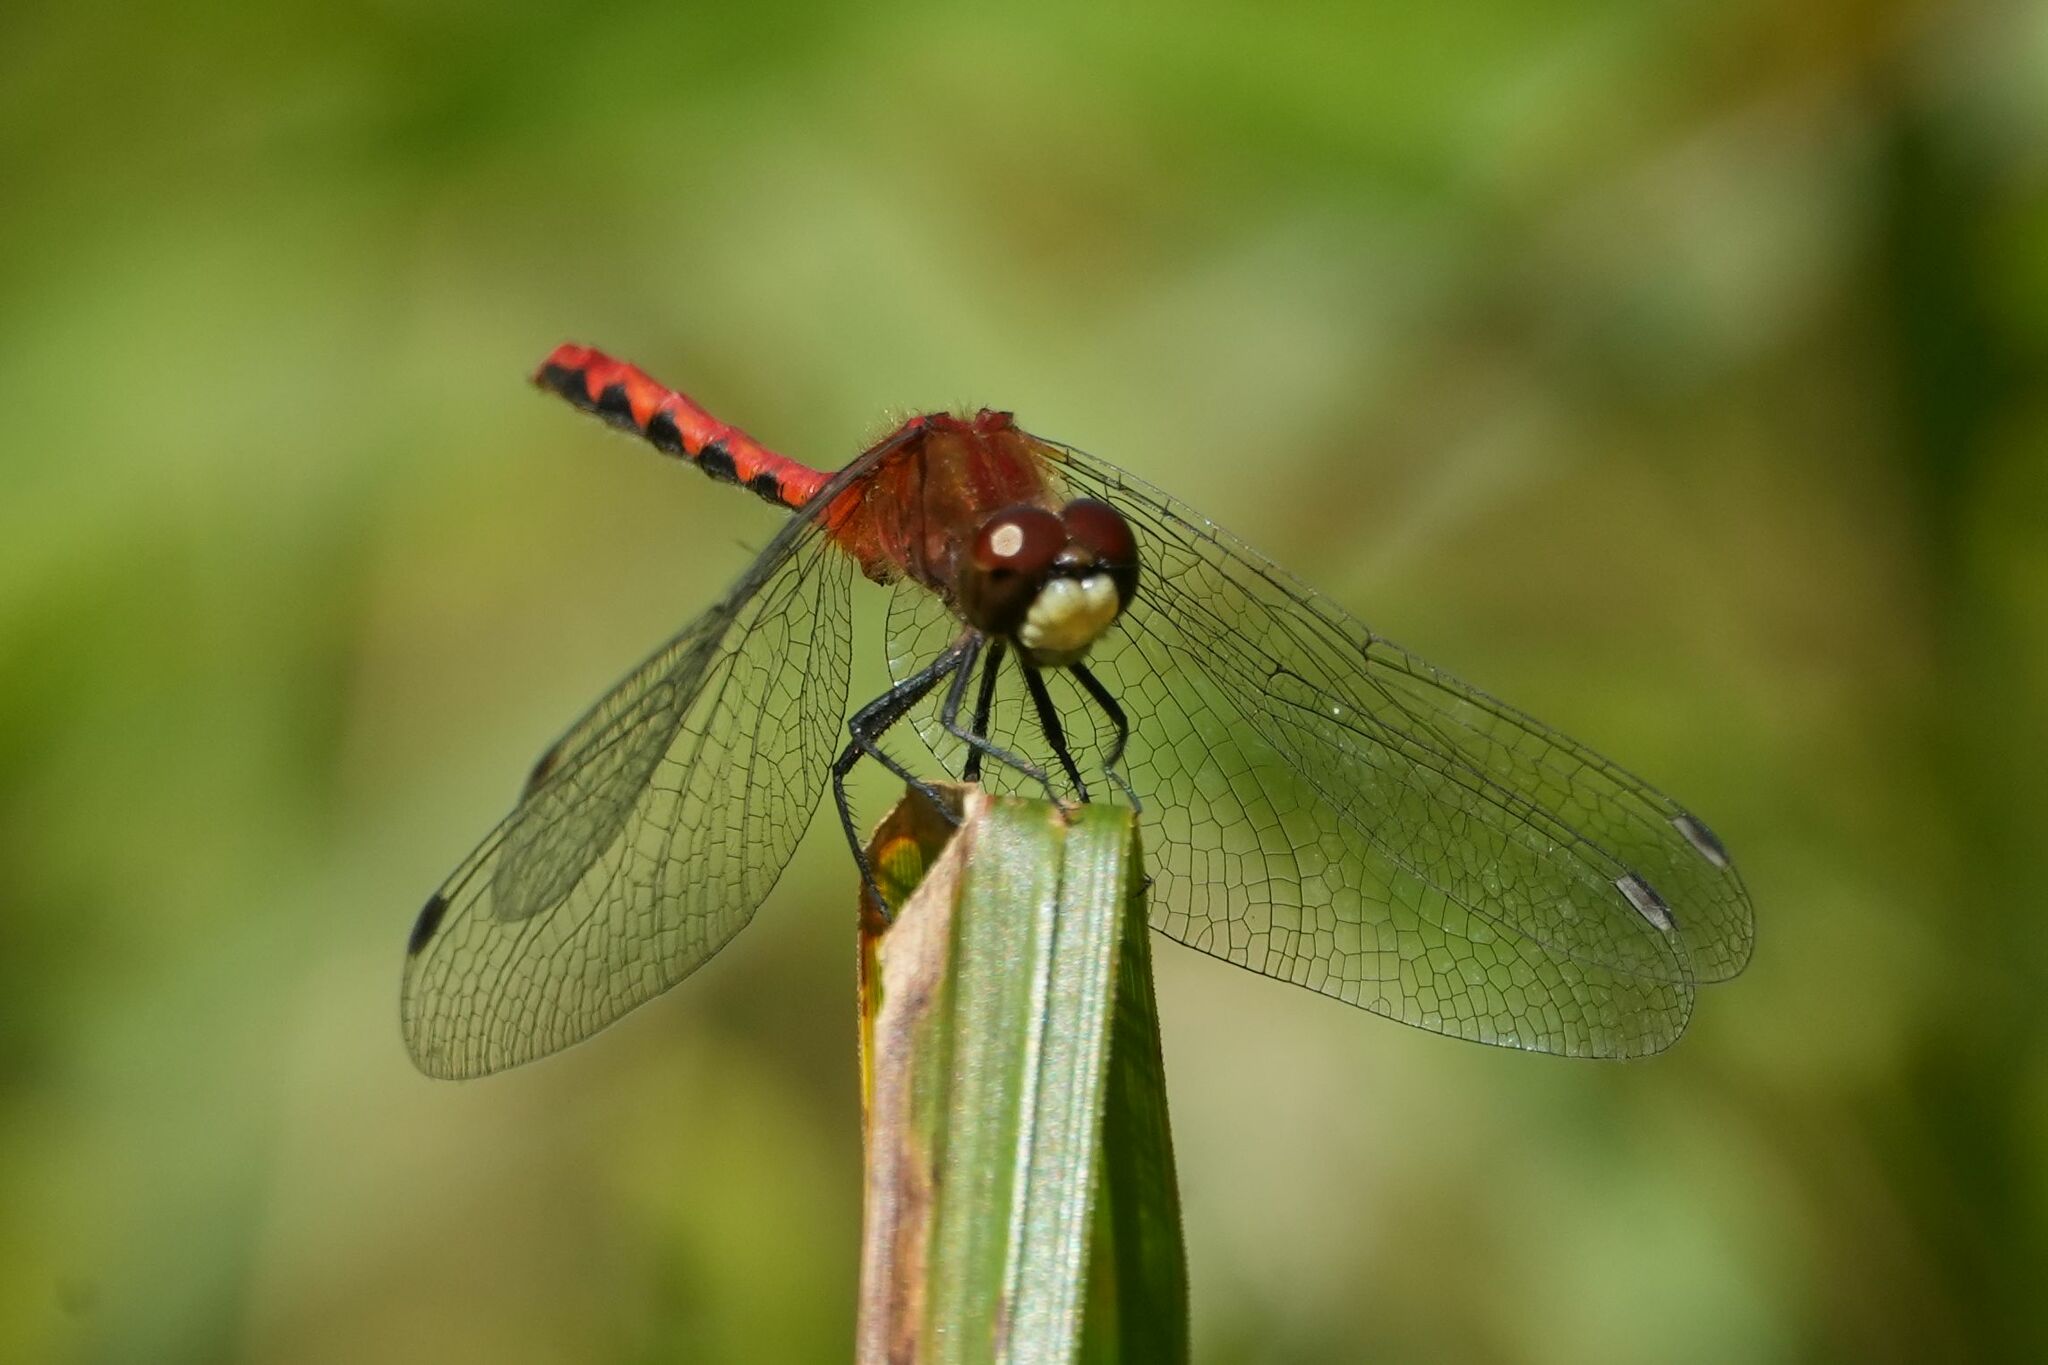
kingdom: Animalia
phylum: Arthropoda
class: Insecta
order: Odonata
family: Libellulidae
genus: Sympetrum
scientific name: Sympetrum obtrusum
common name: White-faced meadowhawk
